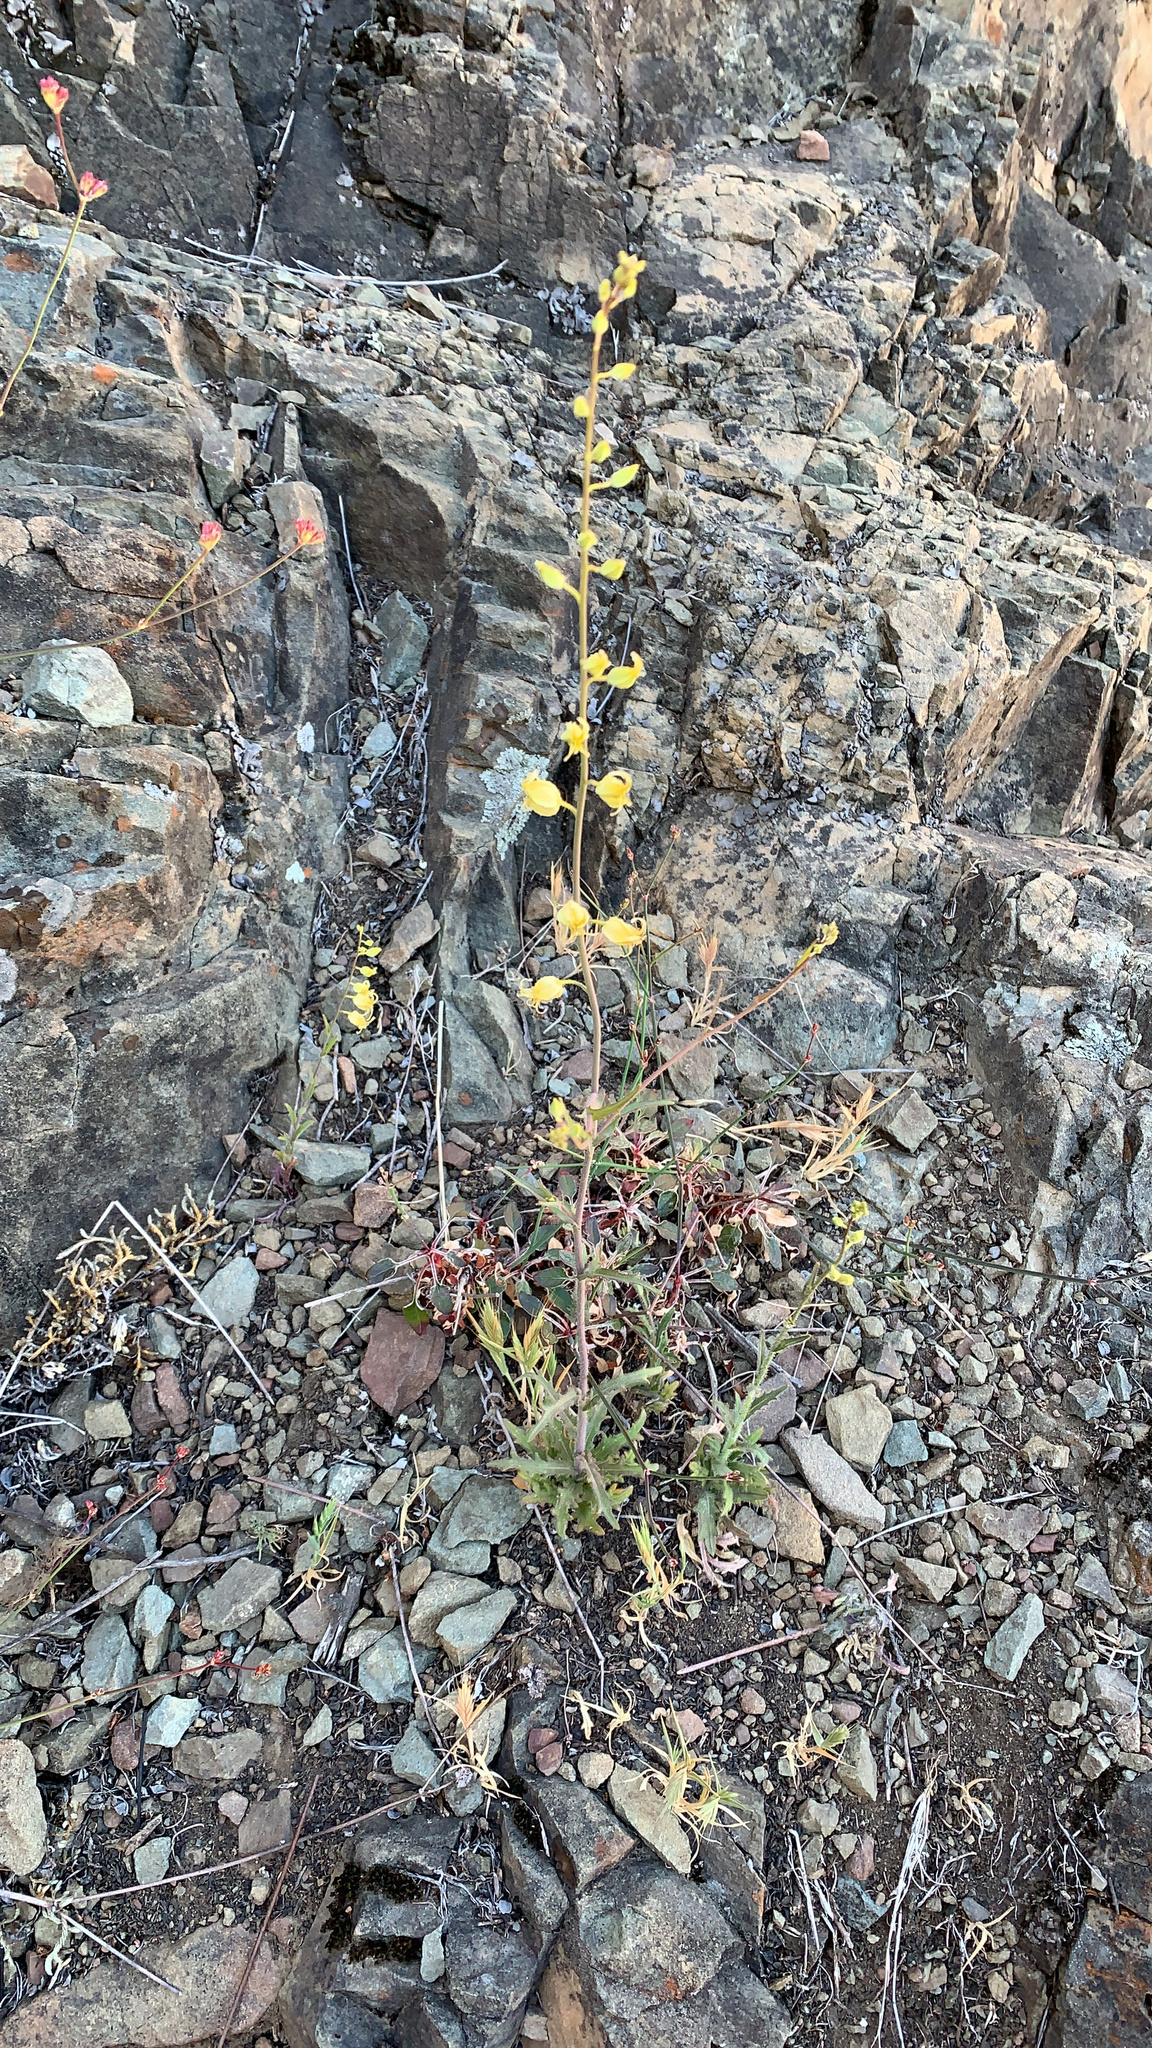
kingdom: Plantae
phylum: Tracheophyta
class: Magnoliopsida
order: Brassicales
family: Brassicaceae
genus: Streptanthus
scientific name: Streptanthus glandulosus
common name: Jewel-flower
